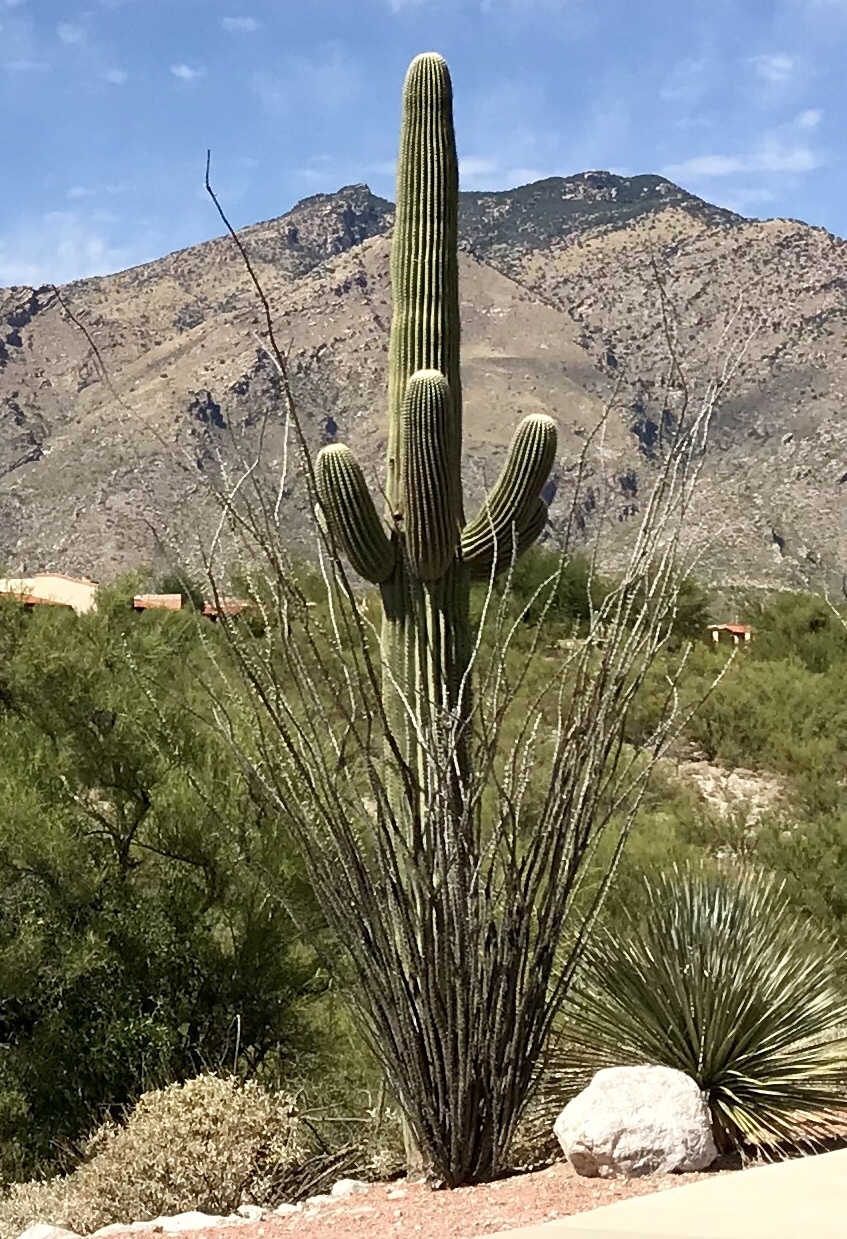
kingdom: Plantae
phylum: Tracheophyta
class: Magnoliopsida
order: Ericales
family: Fouquieriaceae
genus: Fouquieria
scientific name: Fouquieria splendens
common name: Vine-cactus
